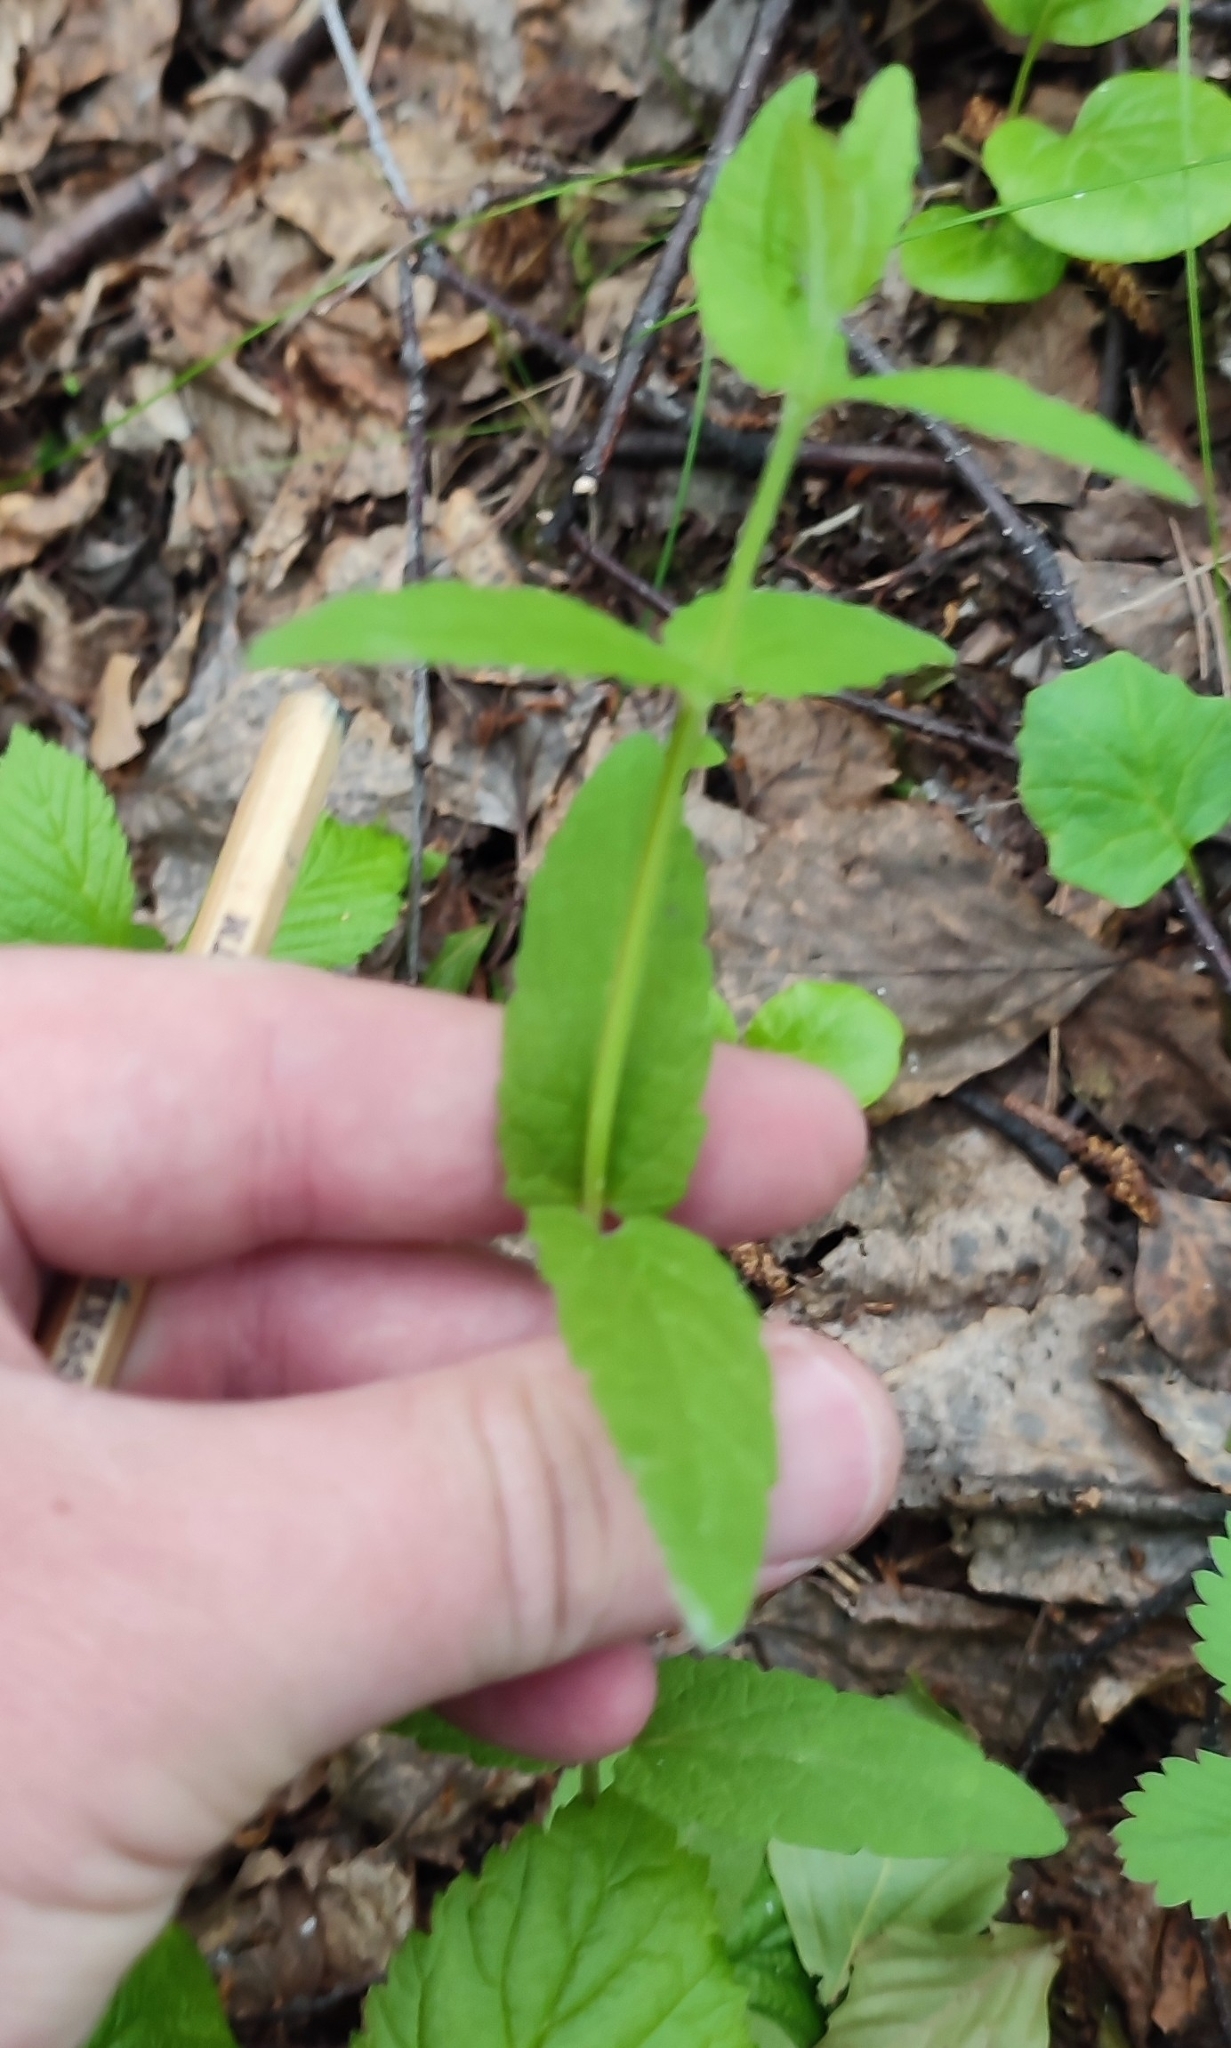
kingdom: Plantae
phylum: Tracheophyta
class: Magnoliopsida
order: Lamiales
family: Lamiaceae
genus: Scutellaria
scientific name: Scutellaria galericulata
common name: Skullcap
